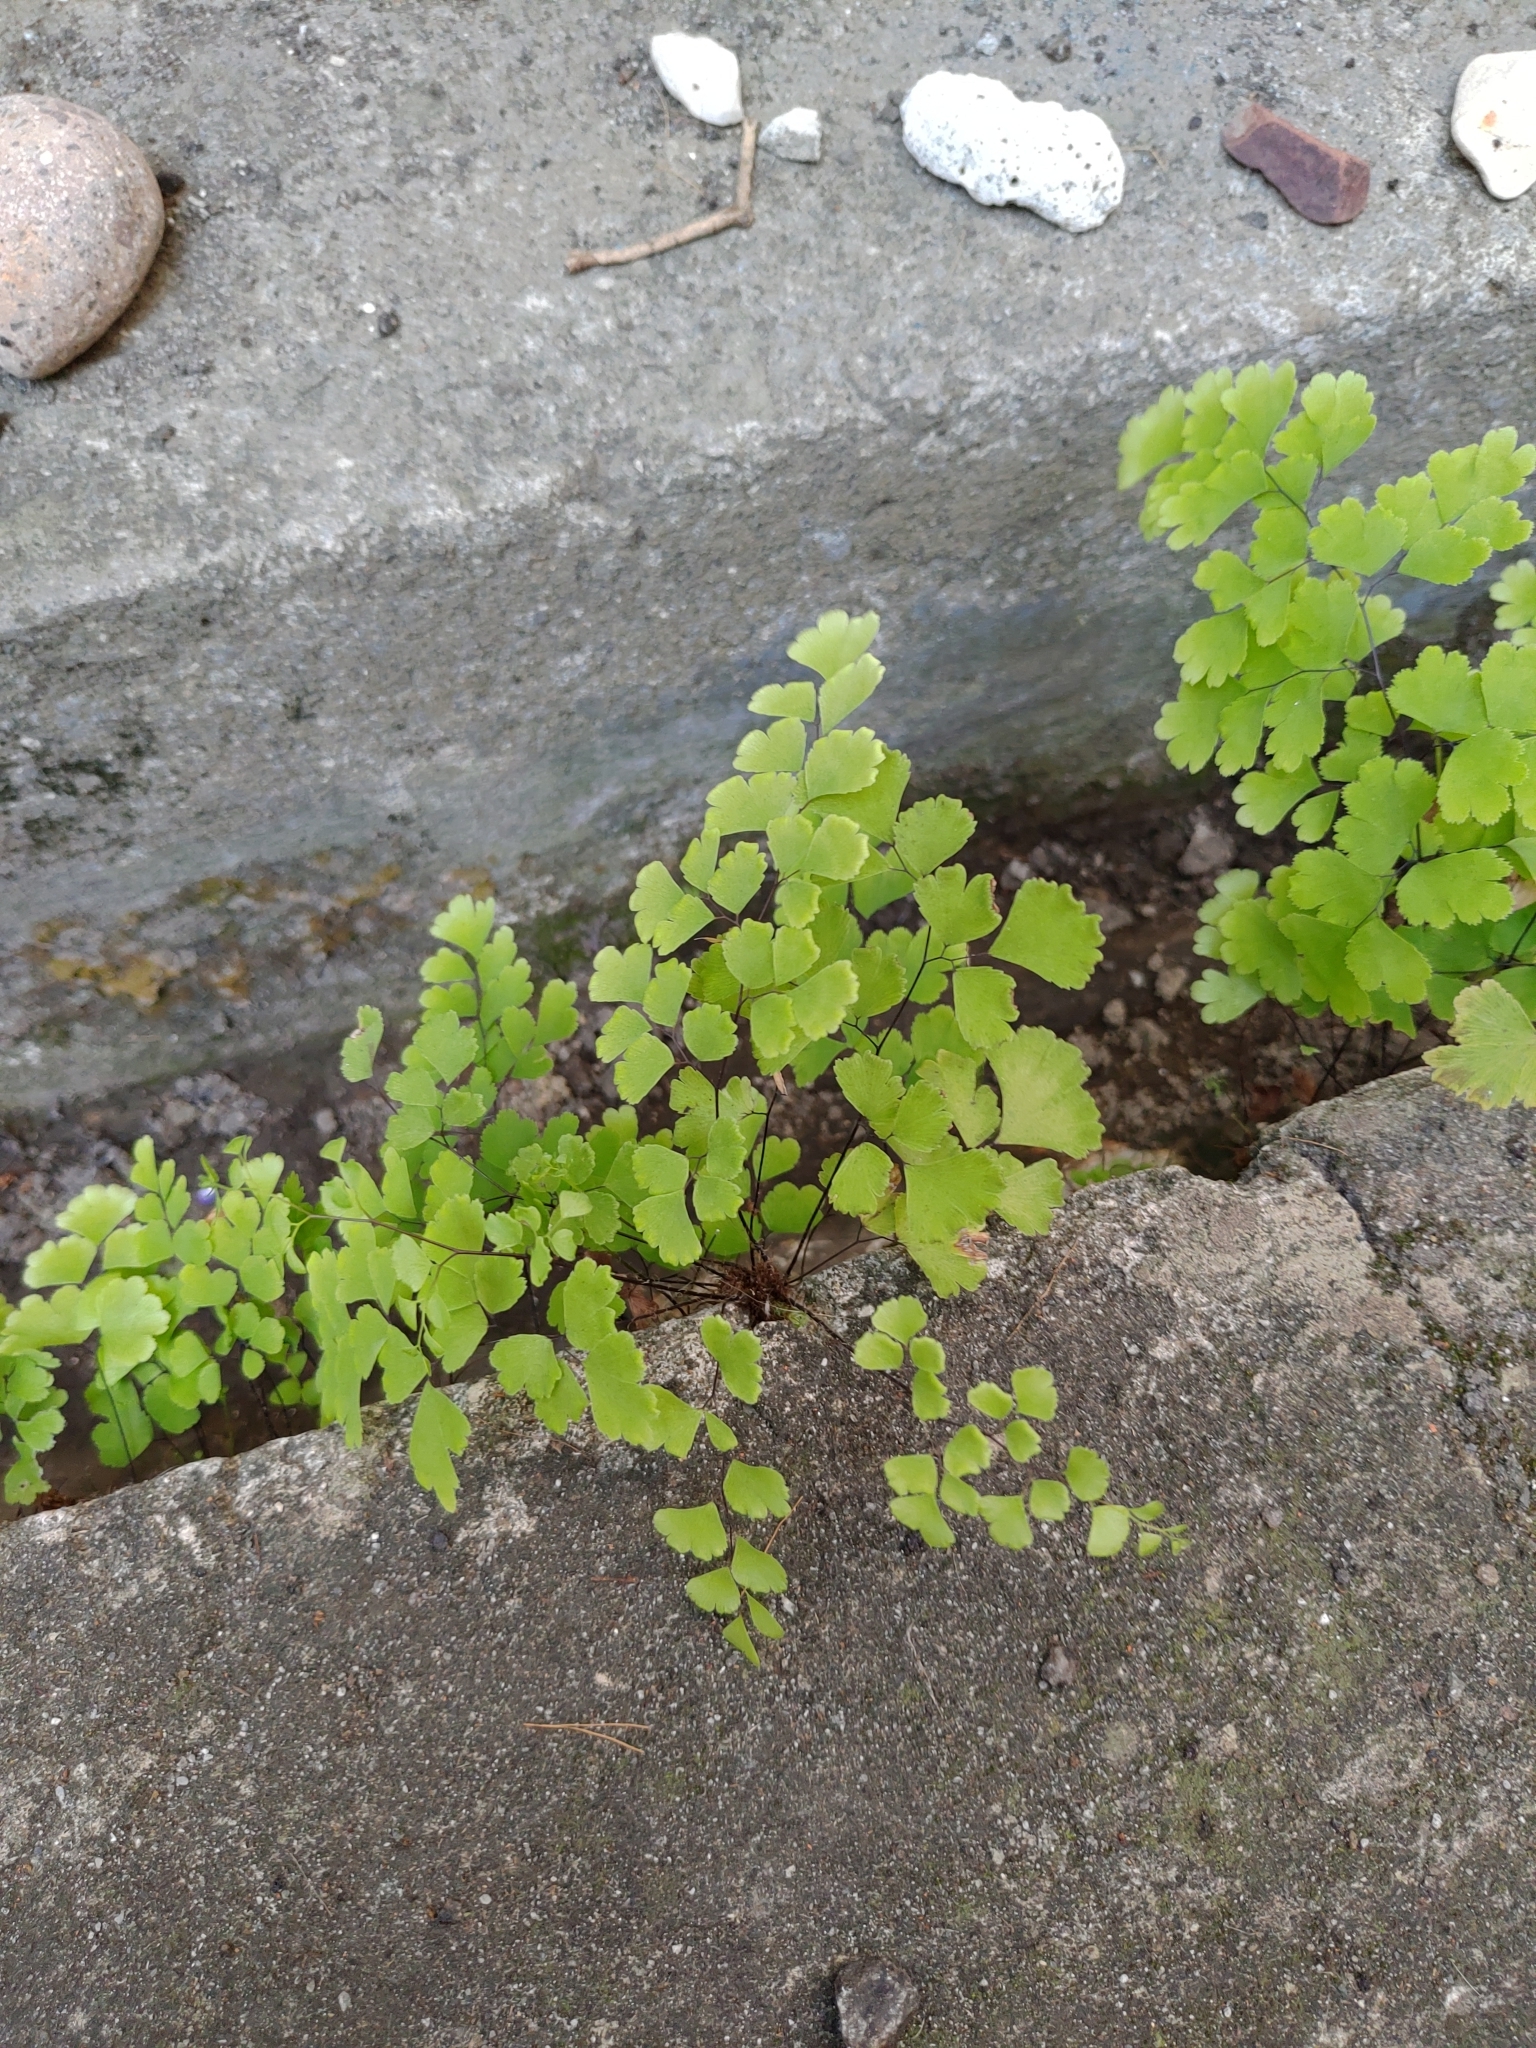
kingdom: Plantae
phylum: Tracheophyta
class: Polypodiopsida
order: Polypodiales
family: Pteridaceae
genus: Adiantum
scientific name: Adiantum capillus-veneris
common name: Maidenhair fern
